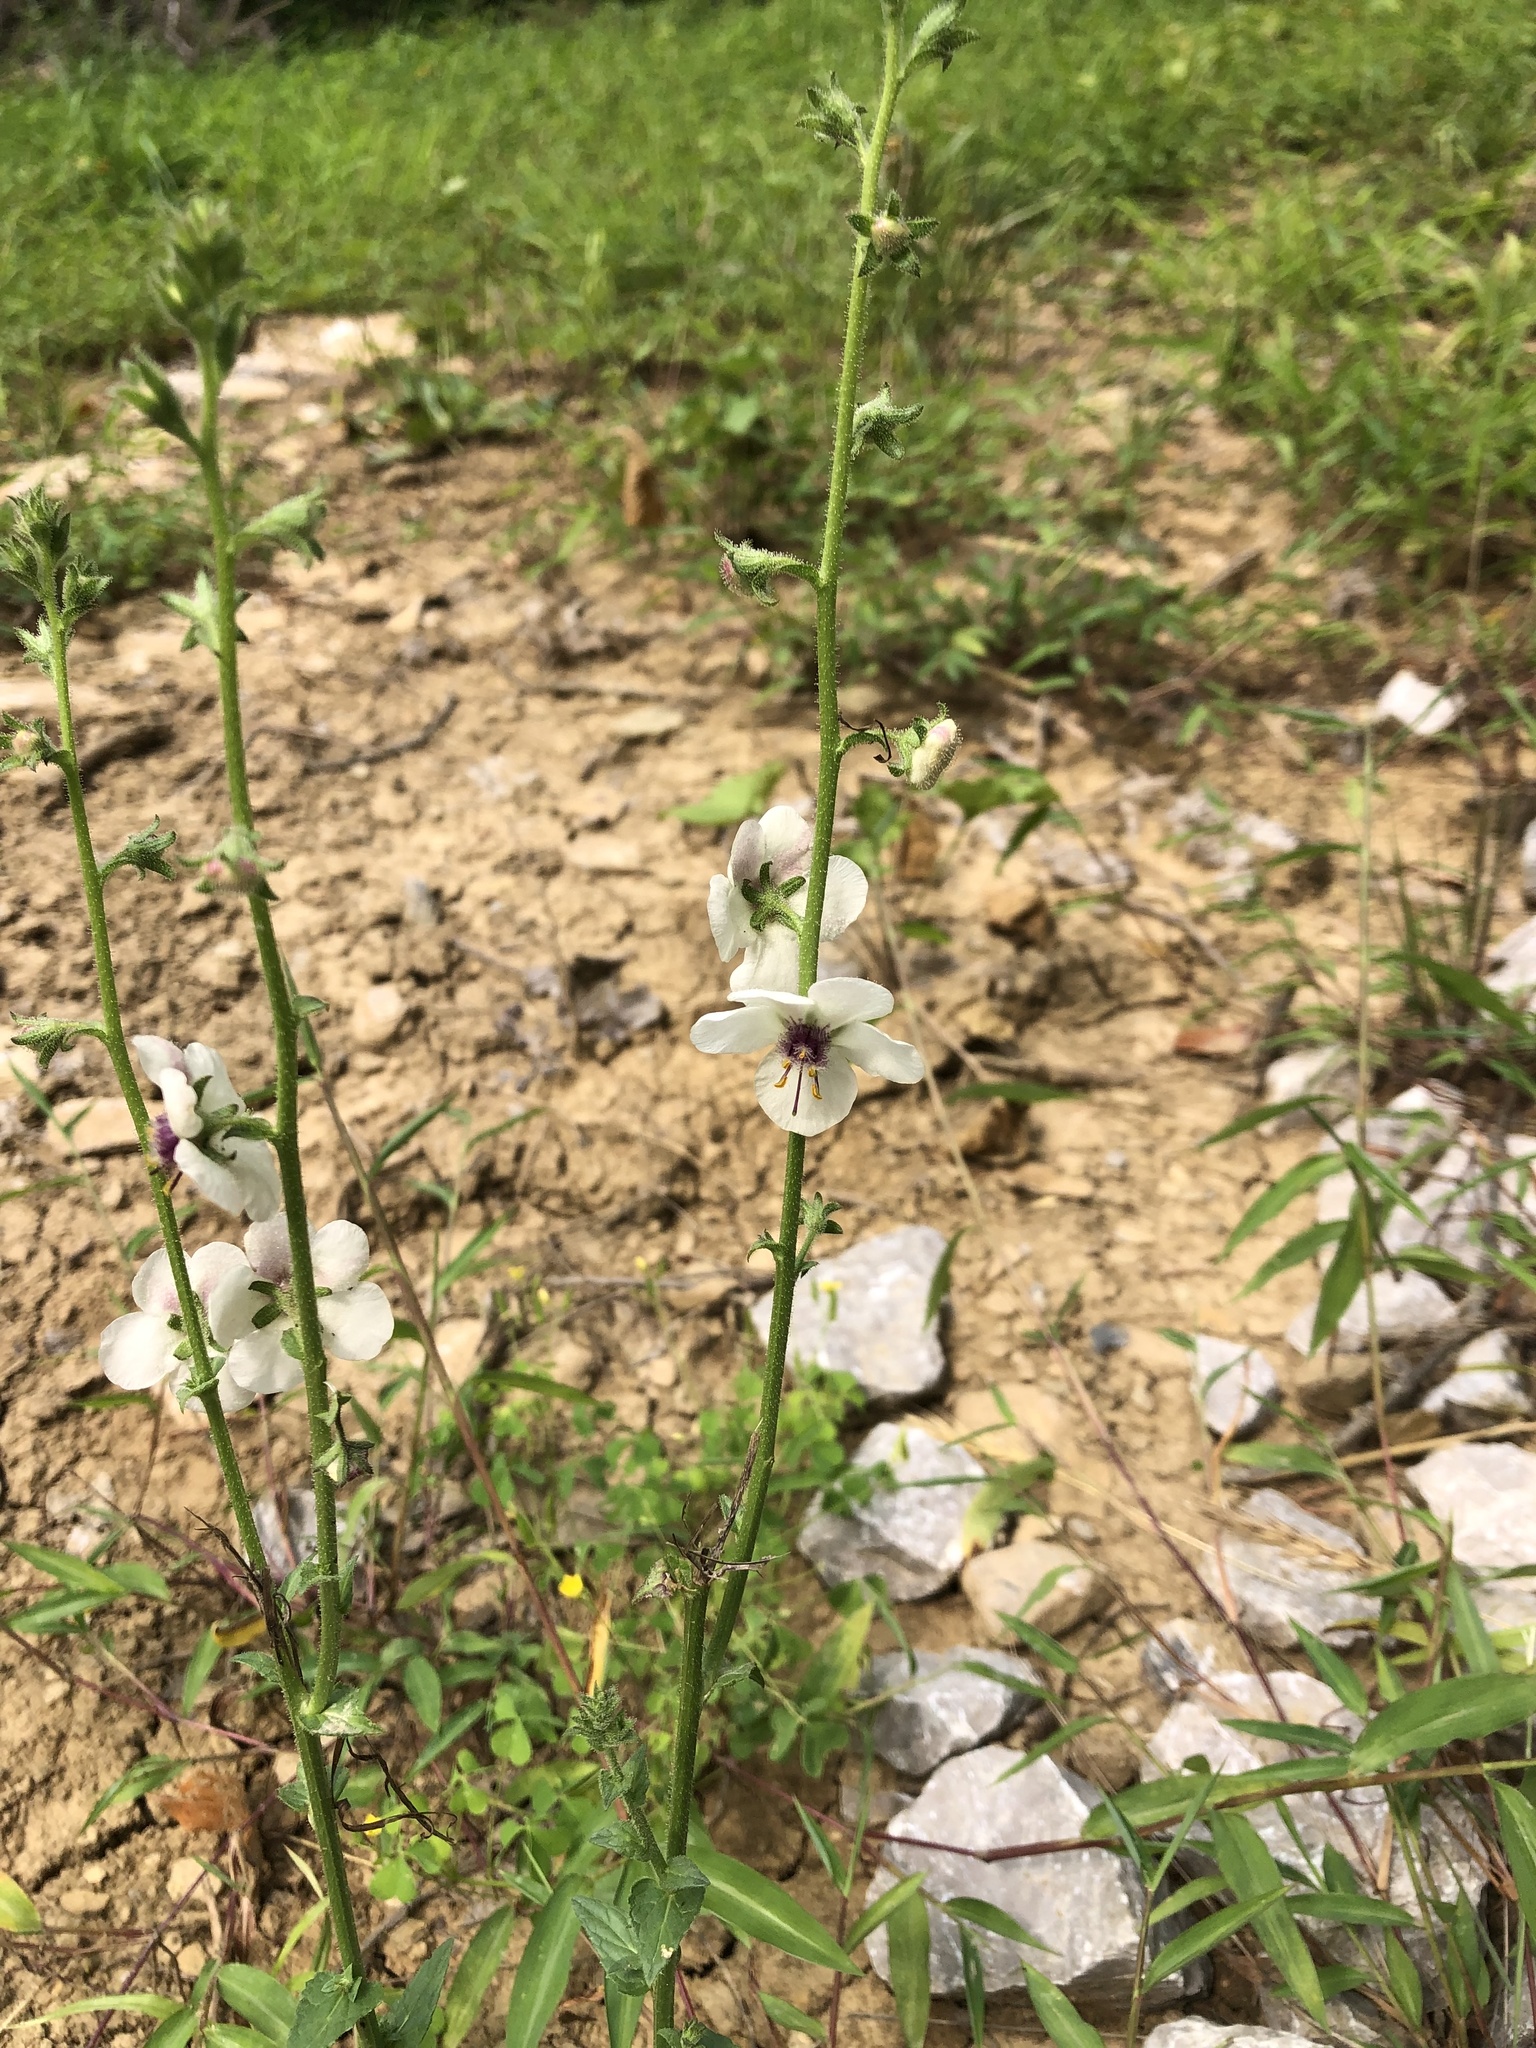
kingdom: Plantae
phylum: Tracheophyta
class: Magnoliopsida
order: Lamiales
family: Scrophulariaceae
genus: Verbascum
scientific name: Verbascum blattaria
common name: Moth mullein
